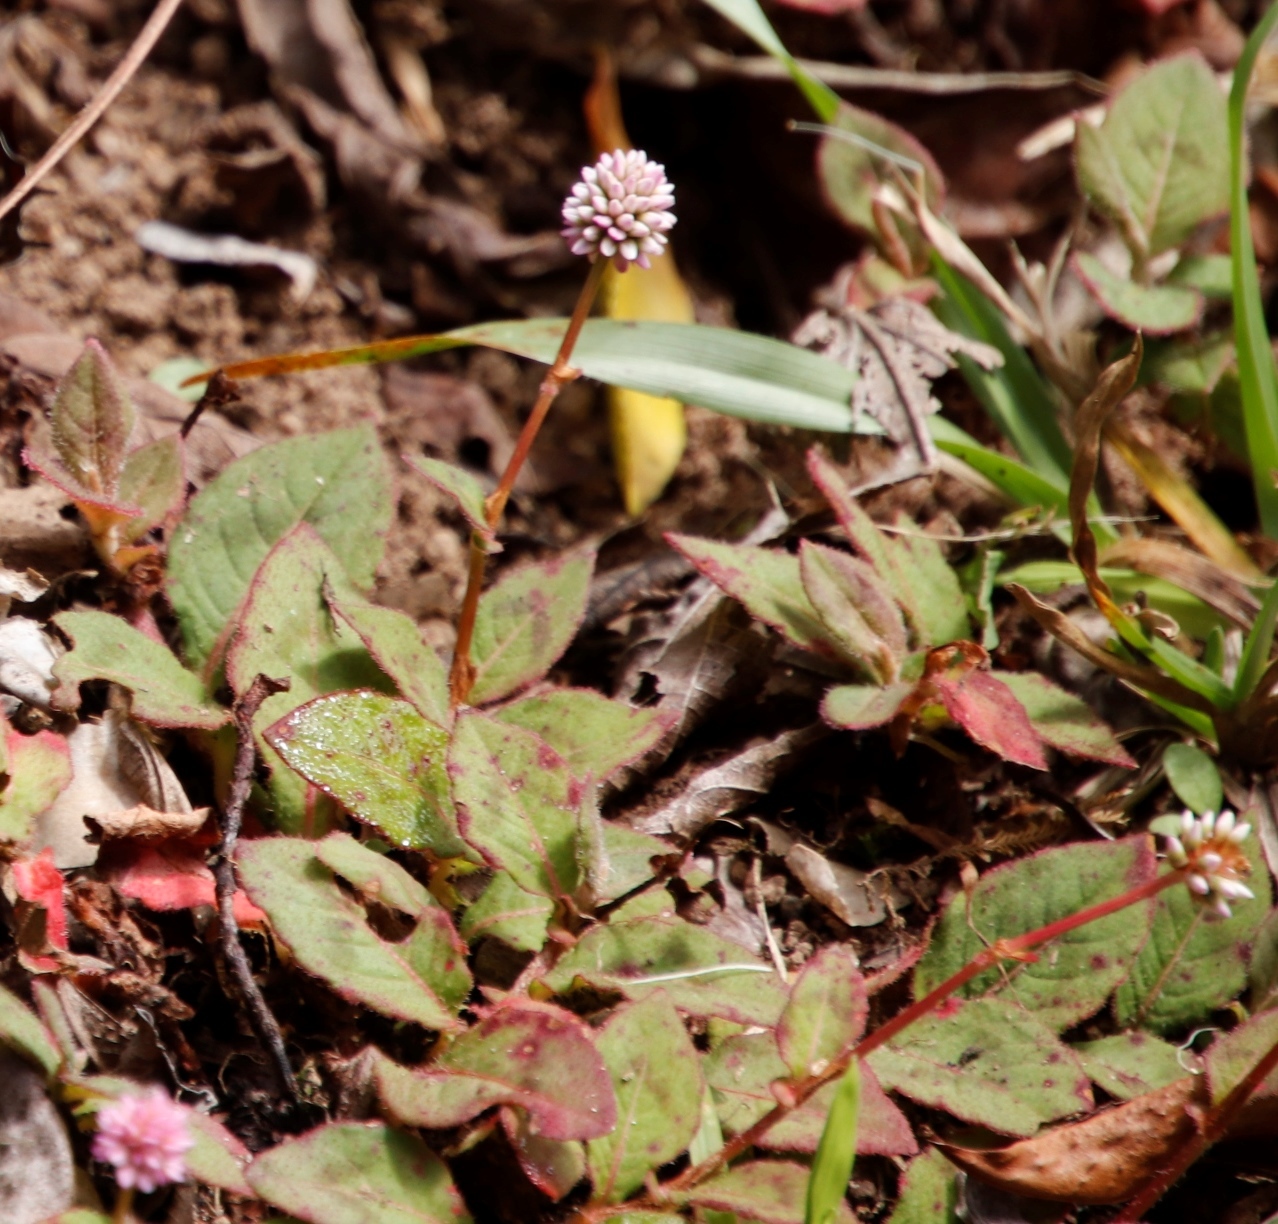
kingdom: Plantae
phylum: Tracheophyta
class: Magnoliopsida
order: Caryophyllales
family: Polygonaceae
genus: Persicaria
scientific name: Persicaria capitata
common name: Pinkhead smartweed
